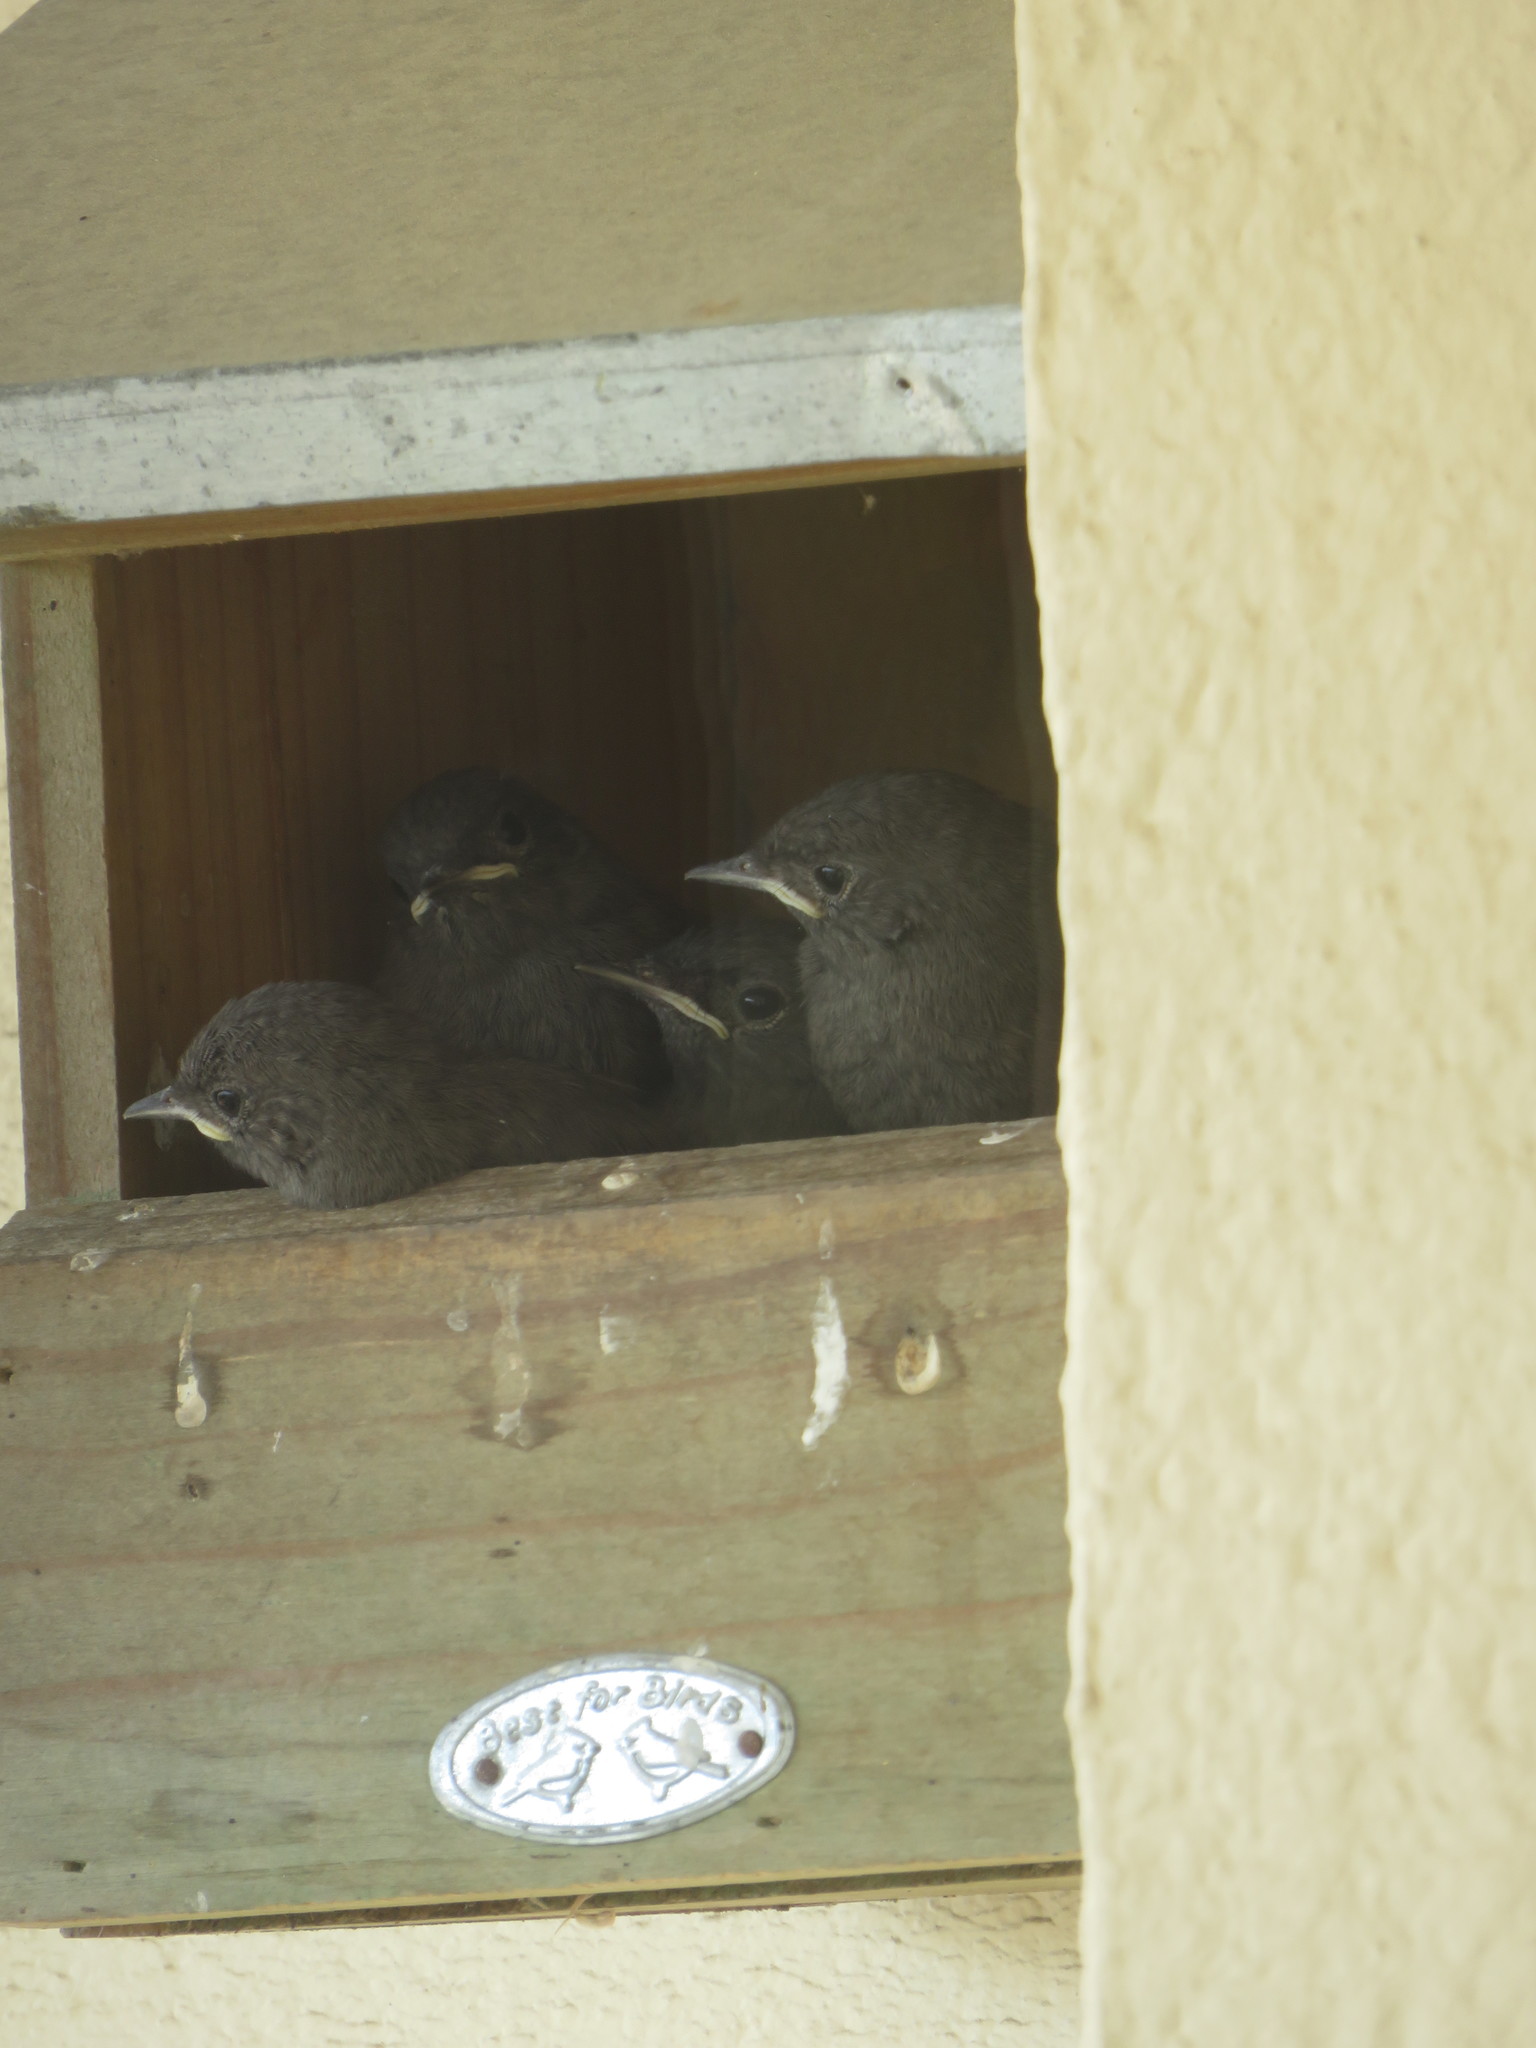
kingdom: Animalia
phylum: Chordata
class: Aves
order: Passeriformes
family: Muscicapidae
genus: Phoenicurus
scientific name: Phoenicurus ochruros
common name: Black redstart
